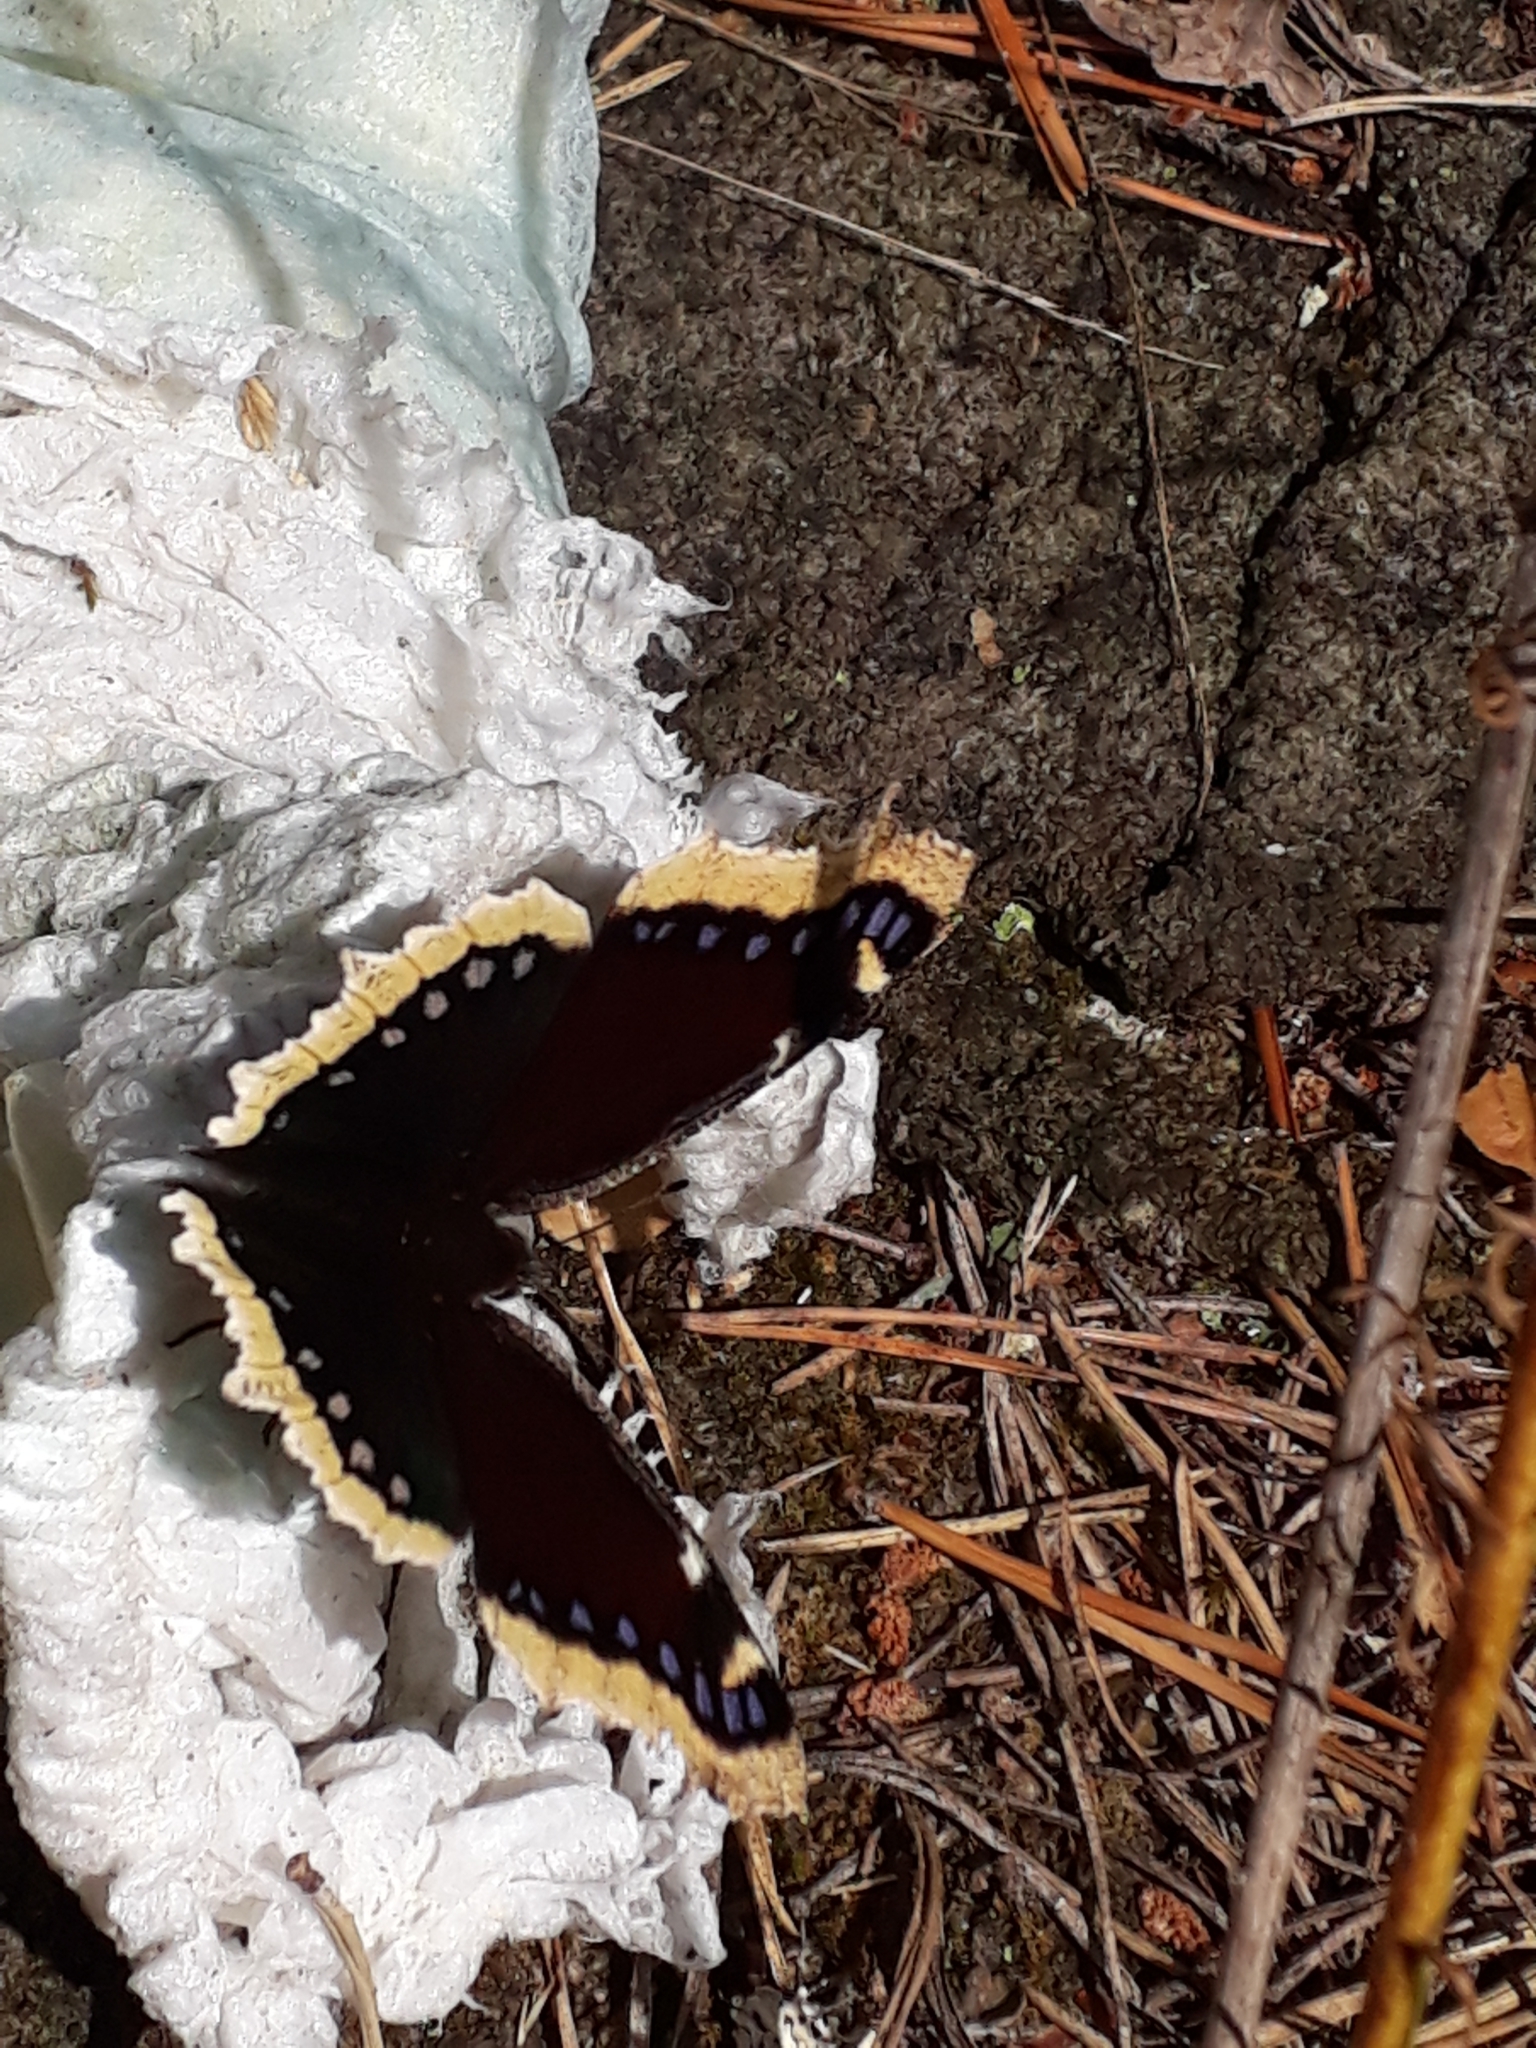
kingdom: Animalia
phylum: Arthropoda
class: Insecta
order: Lepidoptera
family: Nymphalidae
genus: Nymphalis
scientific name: Nymphalis antiopa
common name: Camberwell beauty
